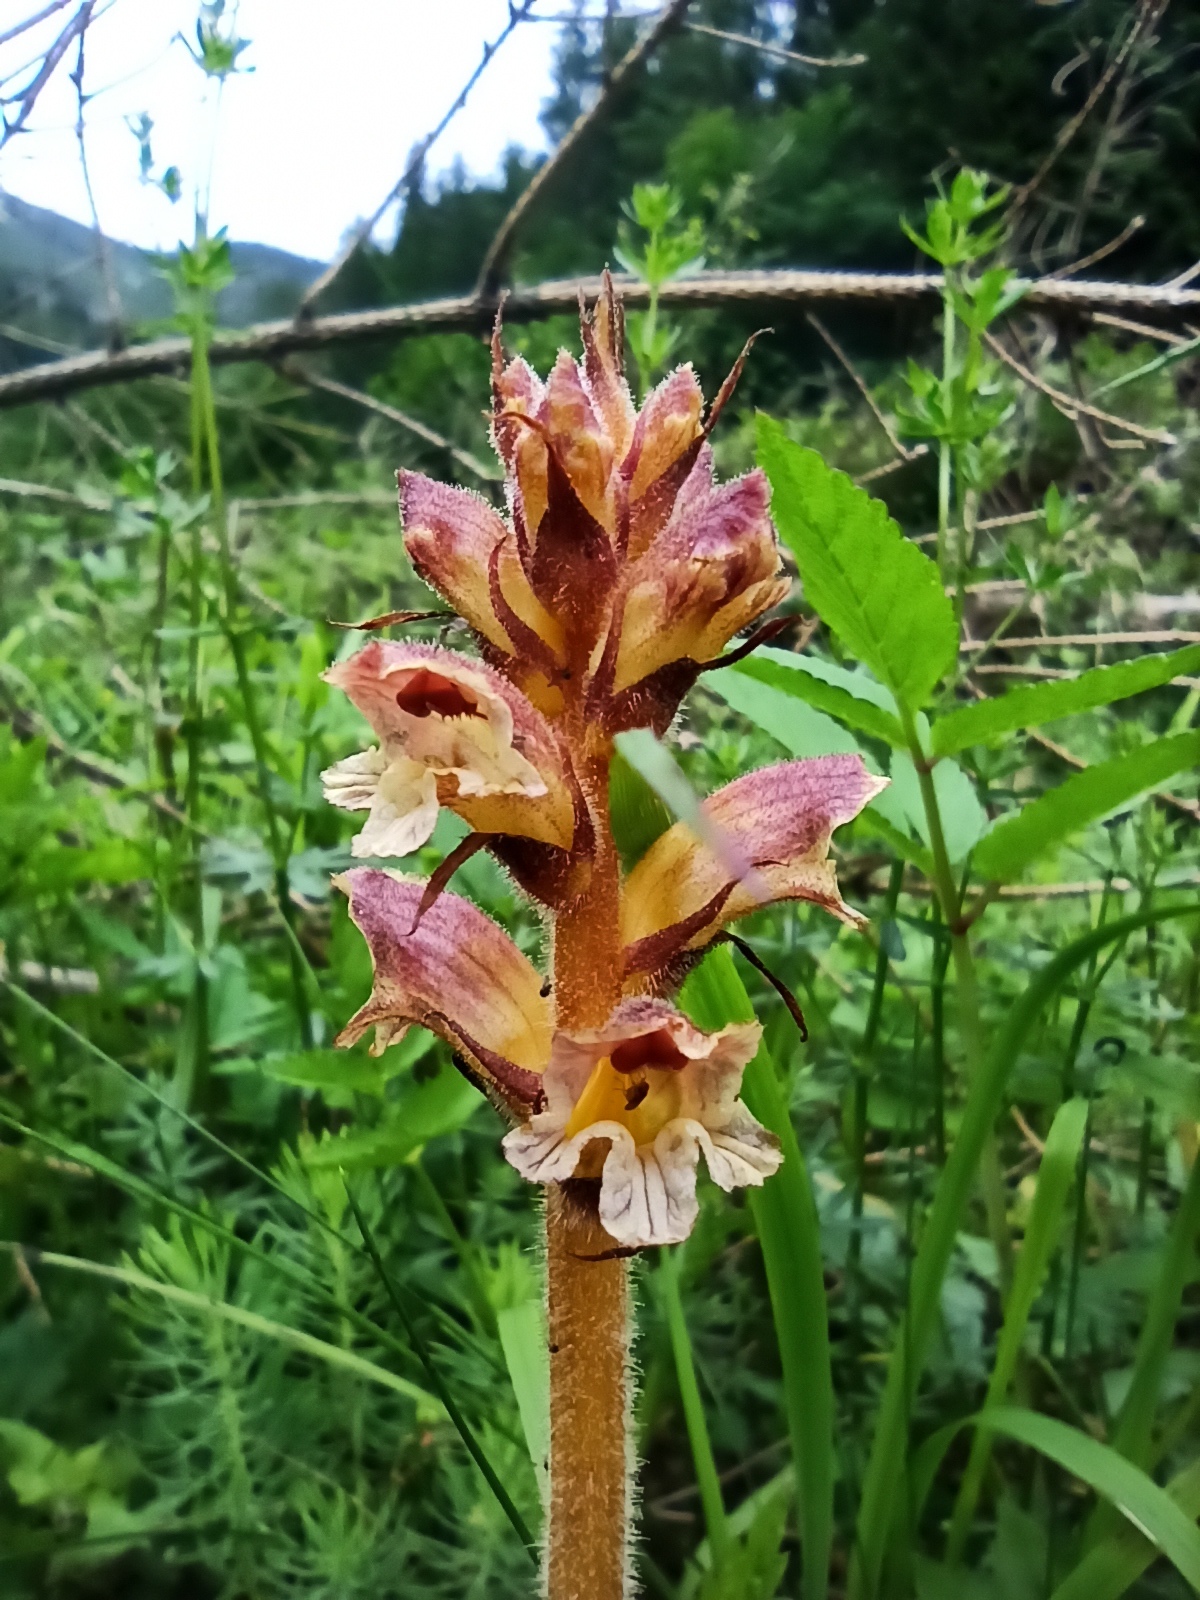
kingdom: Plantae
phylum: Tracheophyta
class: Magnoliopsida
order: Lamiales
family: Orobanchaceae
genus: Orobanche
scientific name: Orobanche reticulata
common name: Thistle broomrape
